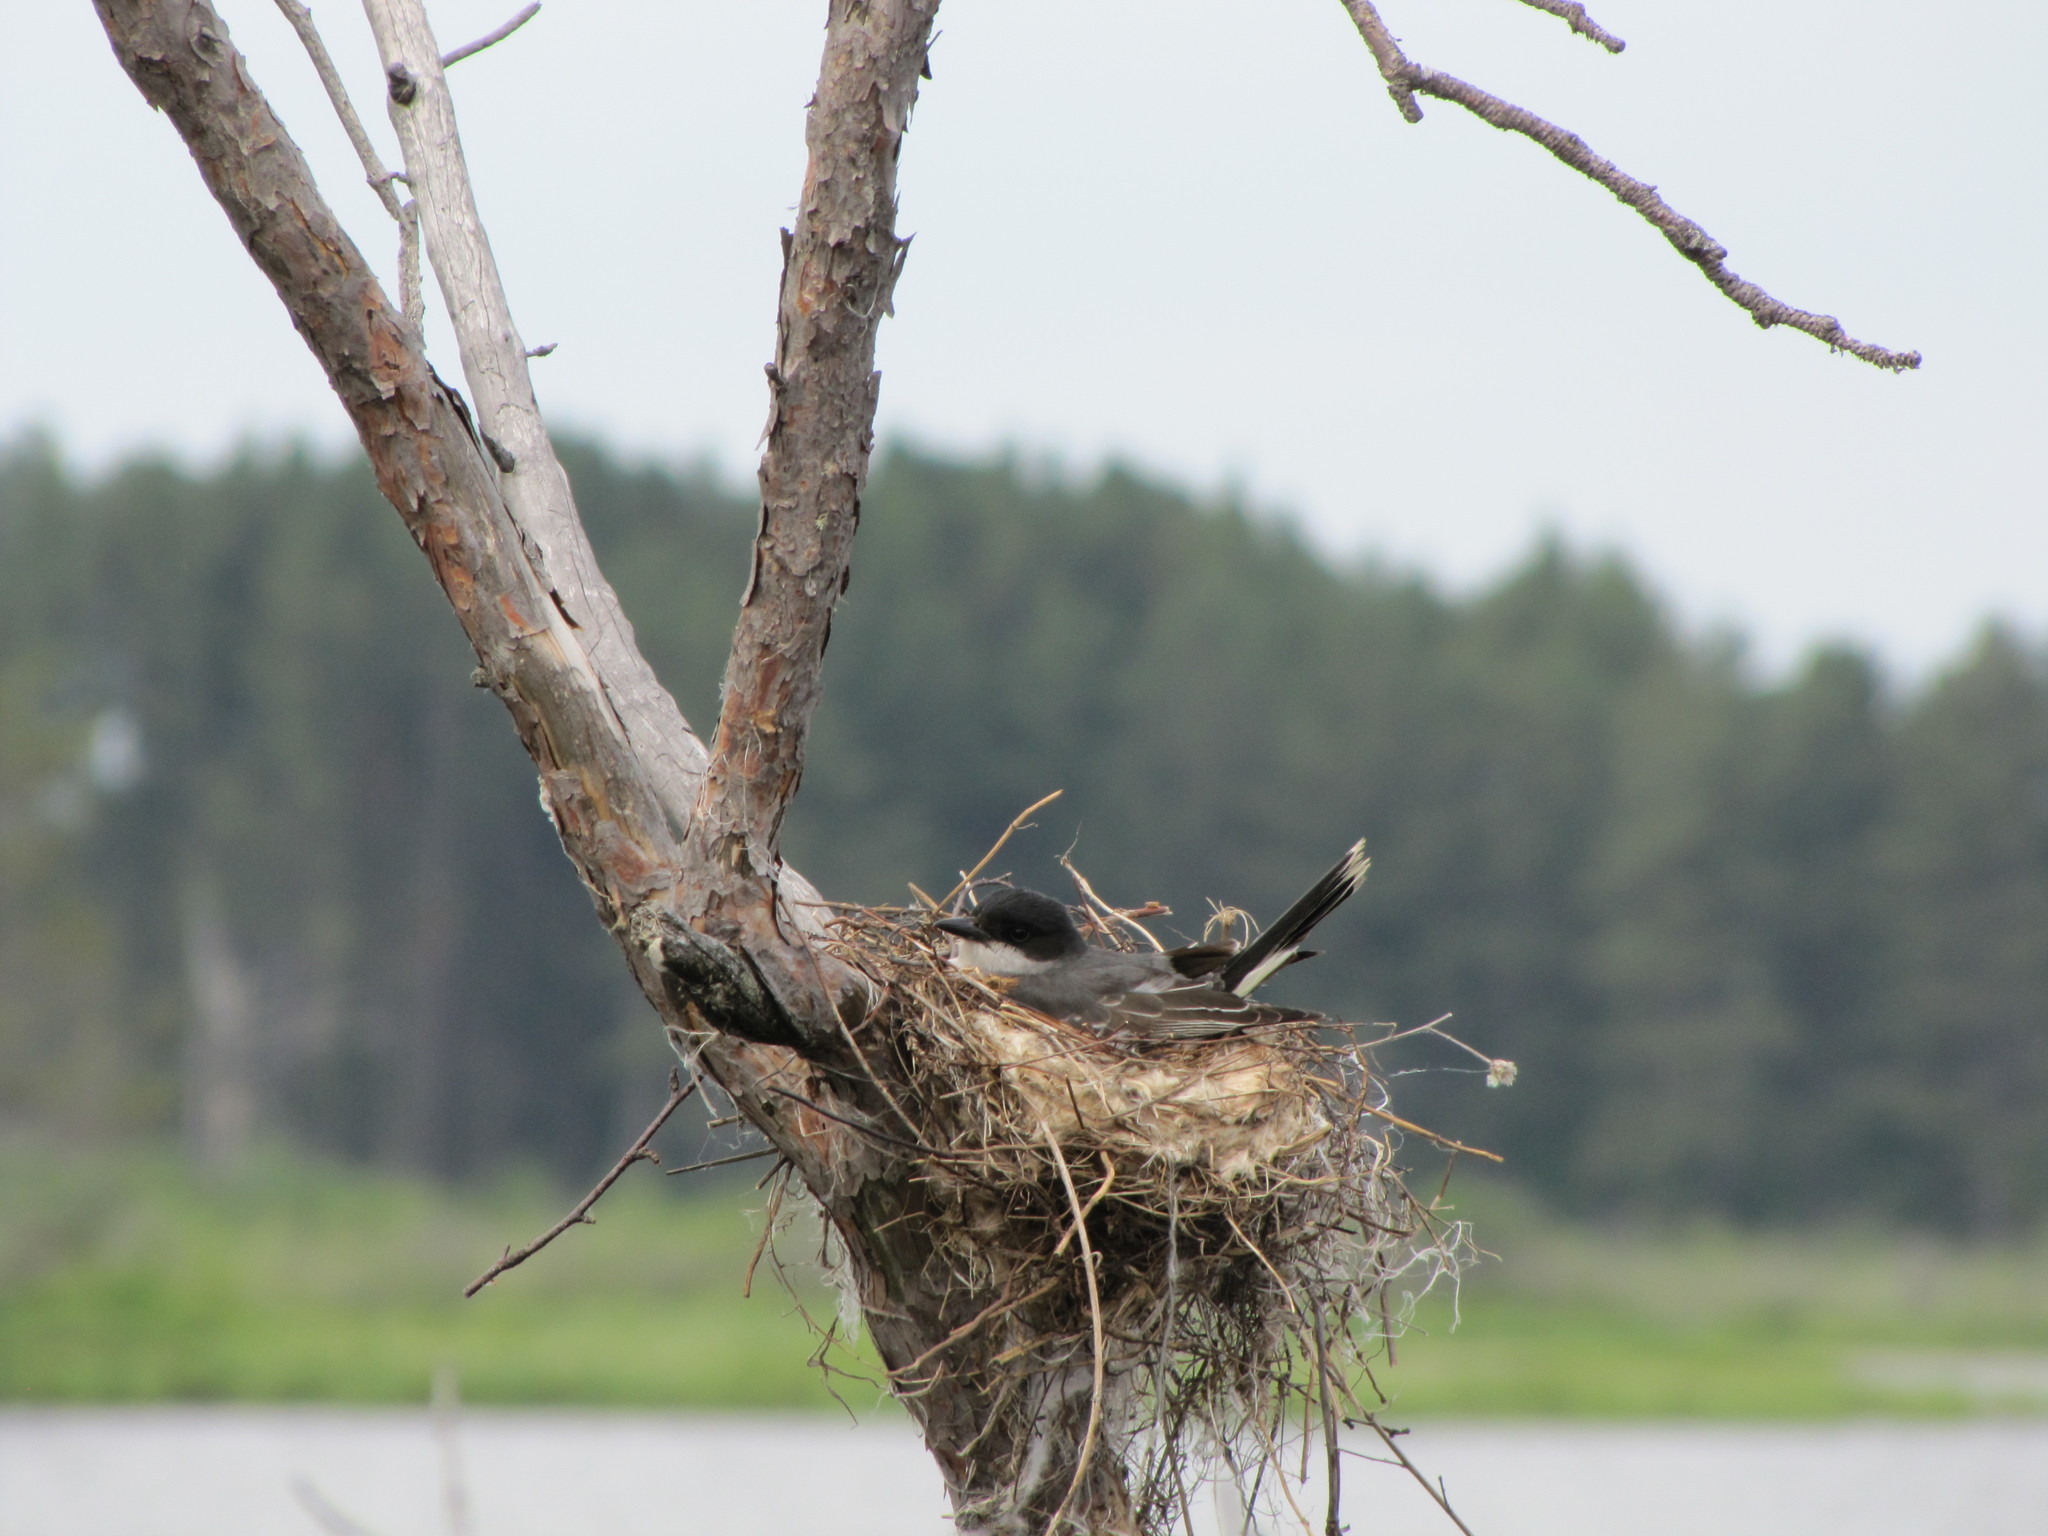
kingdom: Animalia
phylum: Chordata
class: Aves
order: Passeriformes
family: Tyrannidae
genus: Tyrannus
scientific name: Tyrannus tyrannus
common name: Eastern kingbird
